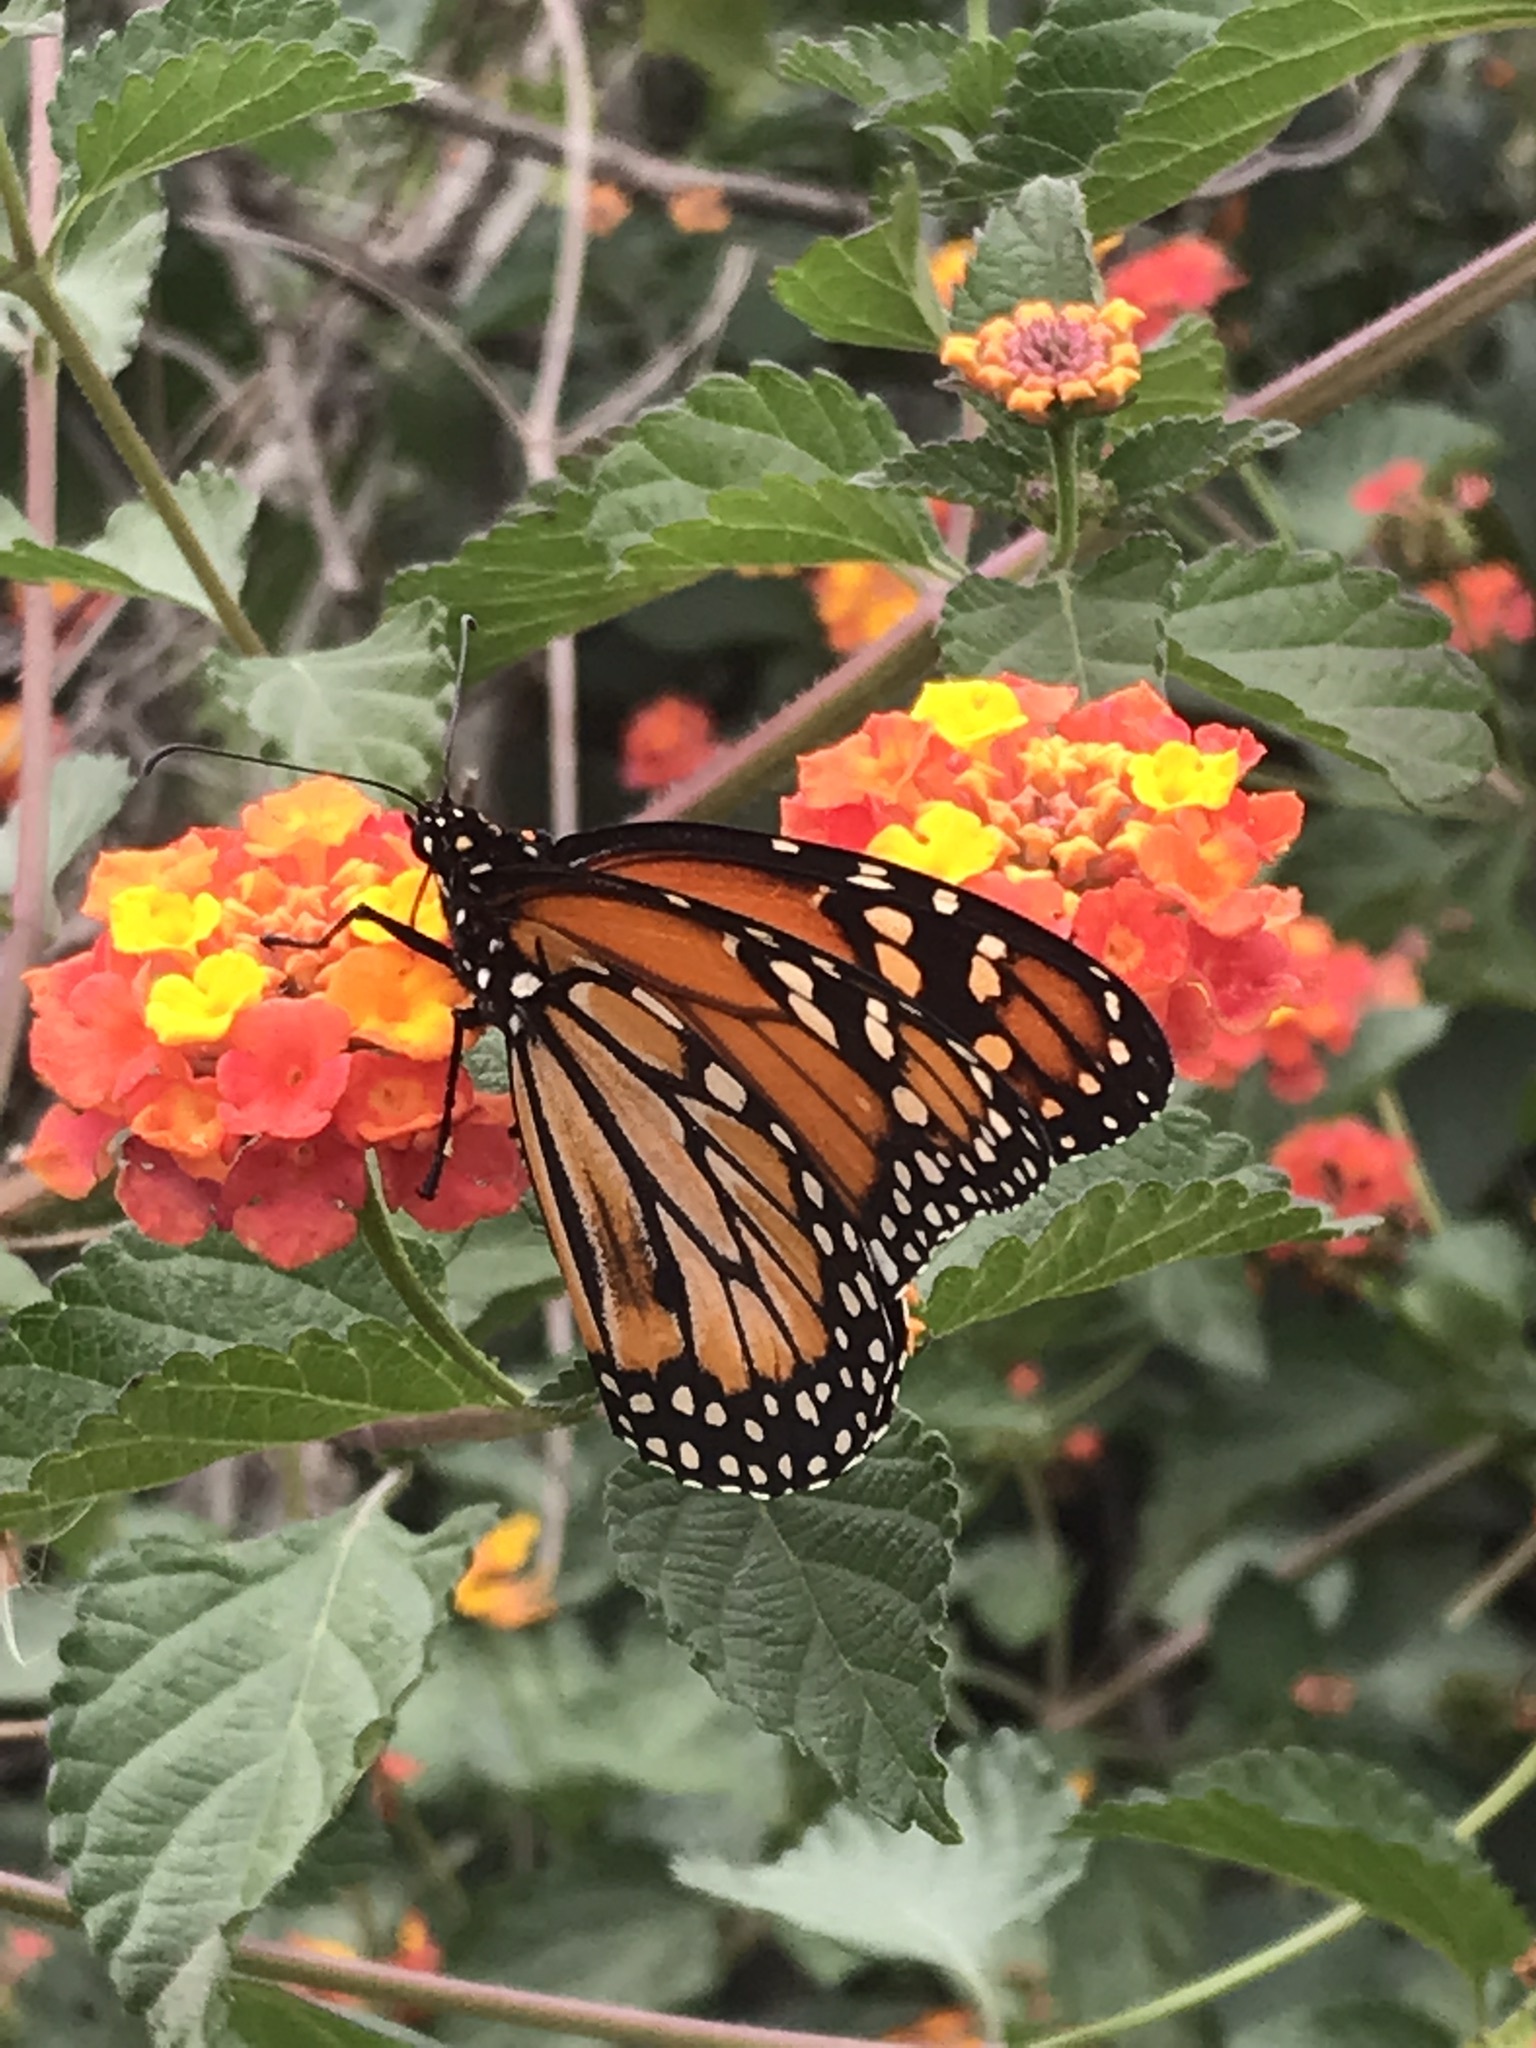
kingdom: Animalia
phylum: Arthropoda
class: Insecta
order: Lepidoptera
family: Nymphalidae
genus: Danaus
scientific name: Danaus erippus
